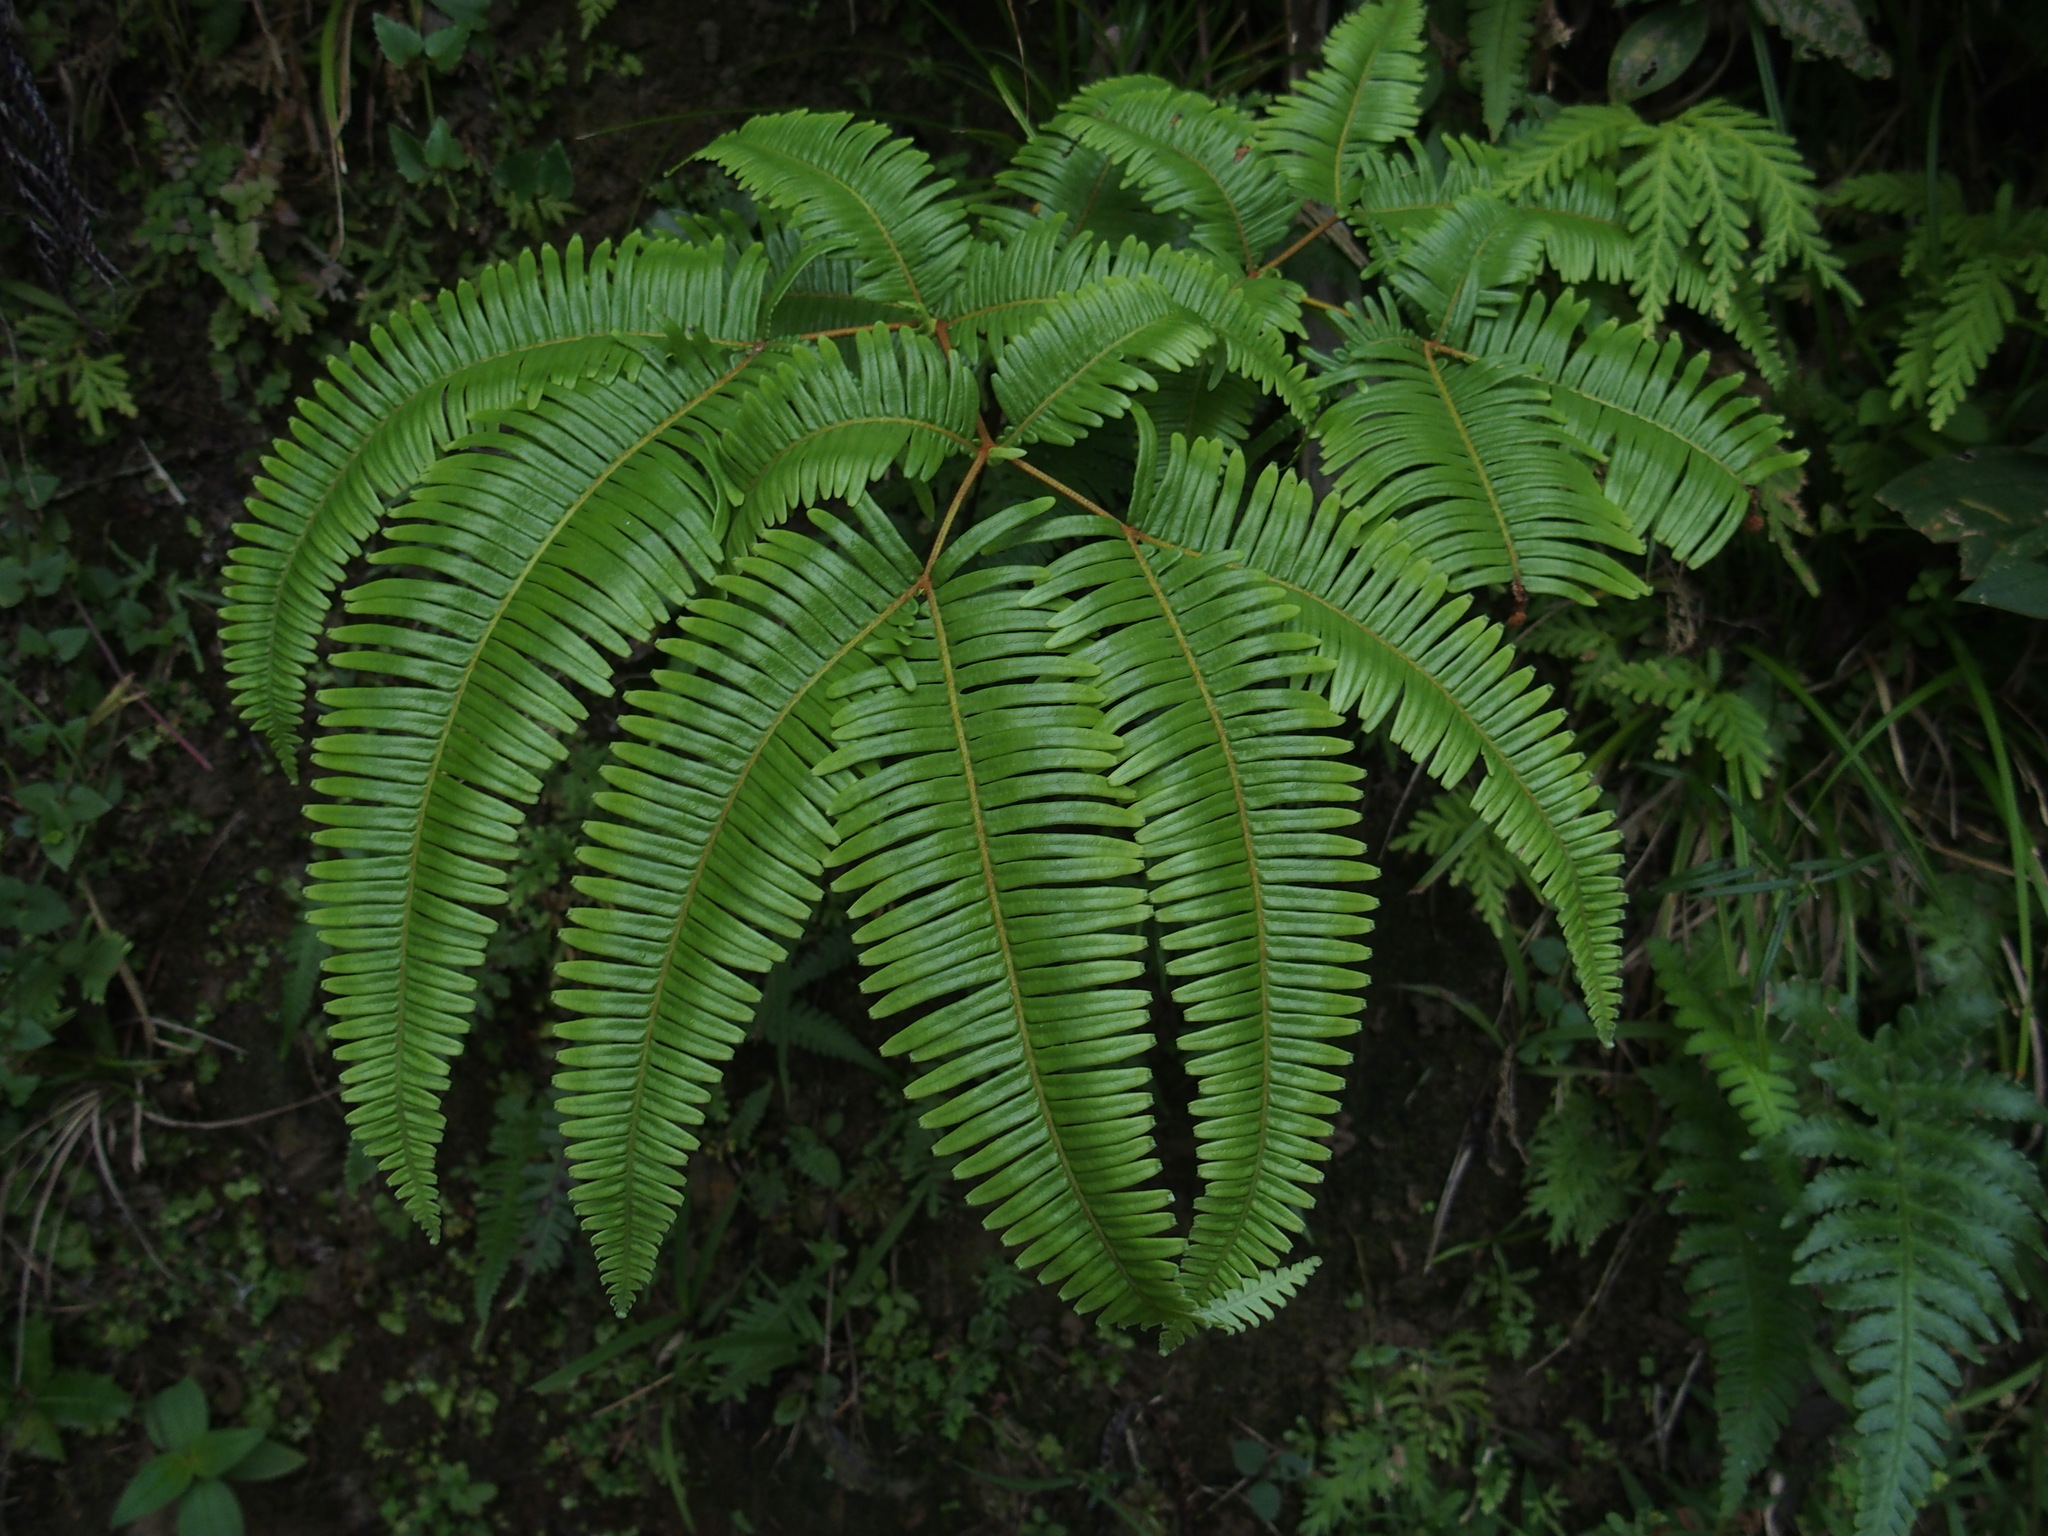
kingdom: Plantae
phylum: Tracheophyta
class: Polypodiopsida
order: Gleicheniales
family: Gleicheniaceae
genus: Dicranopteris
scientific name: Dicranopteris linearis
